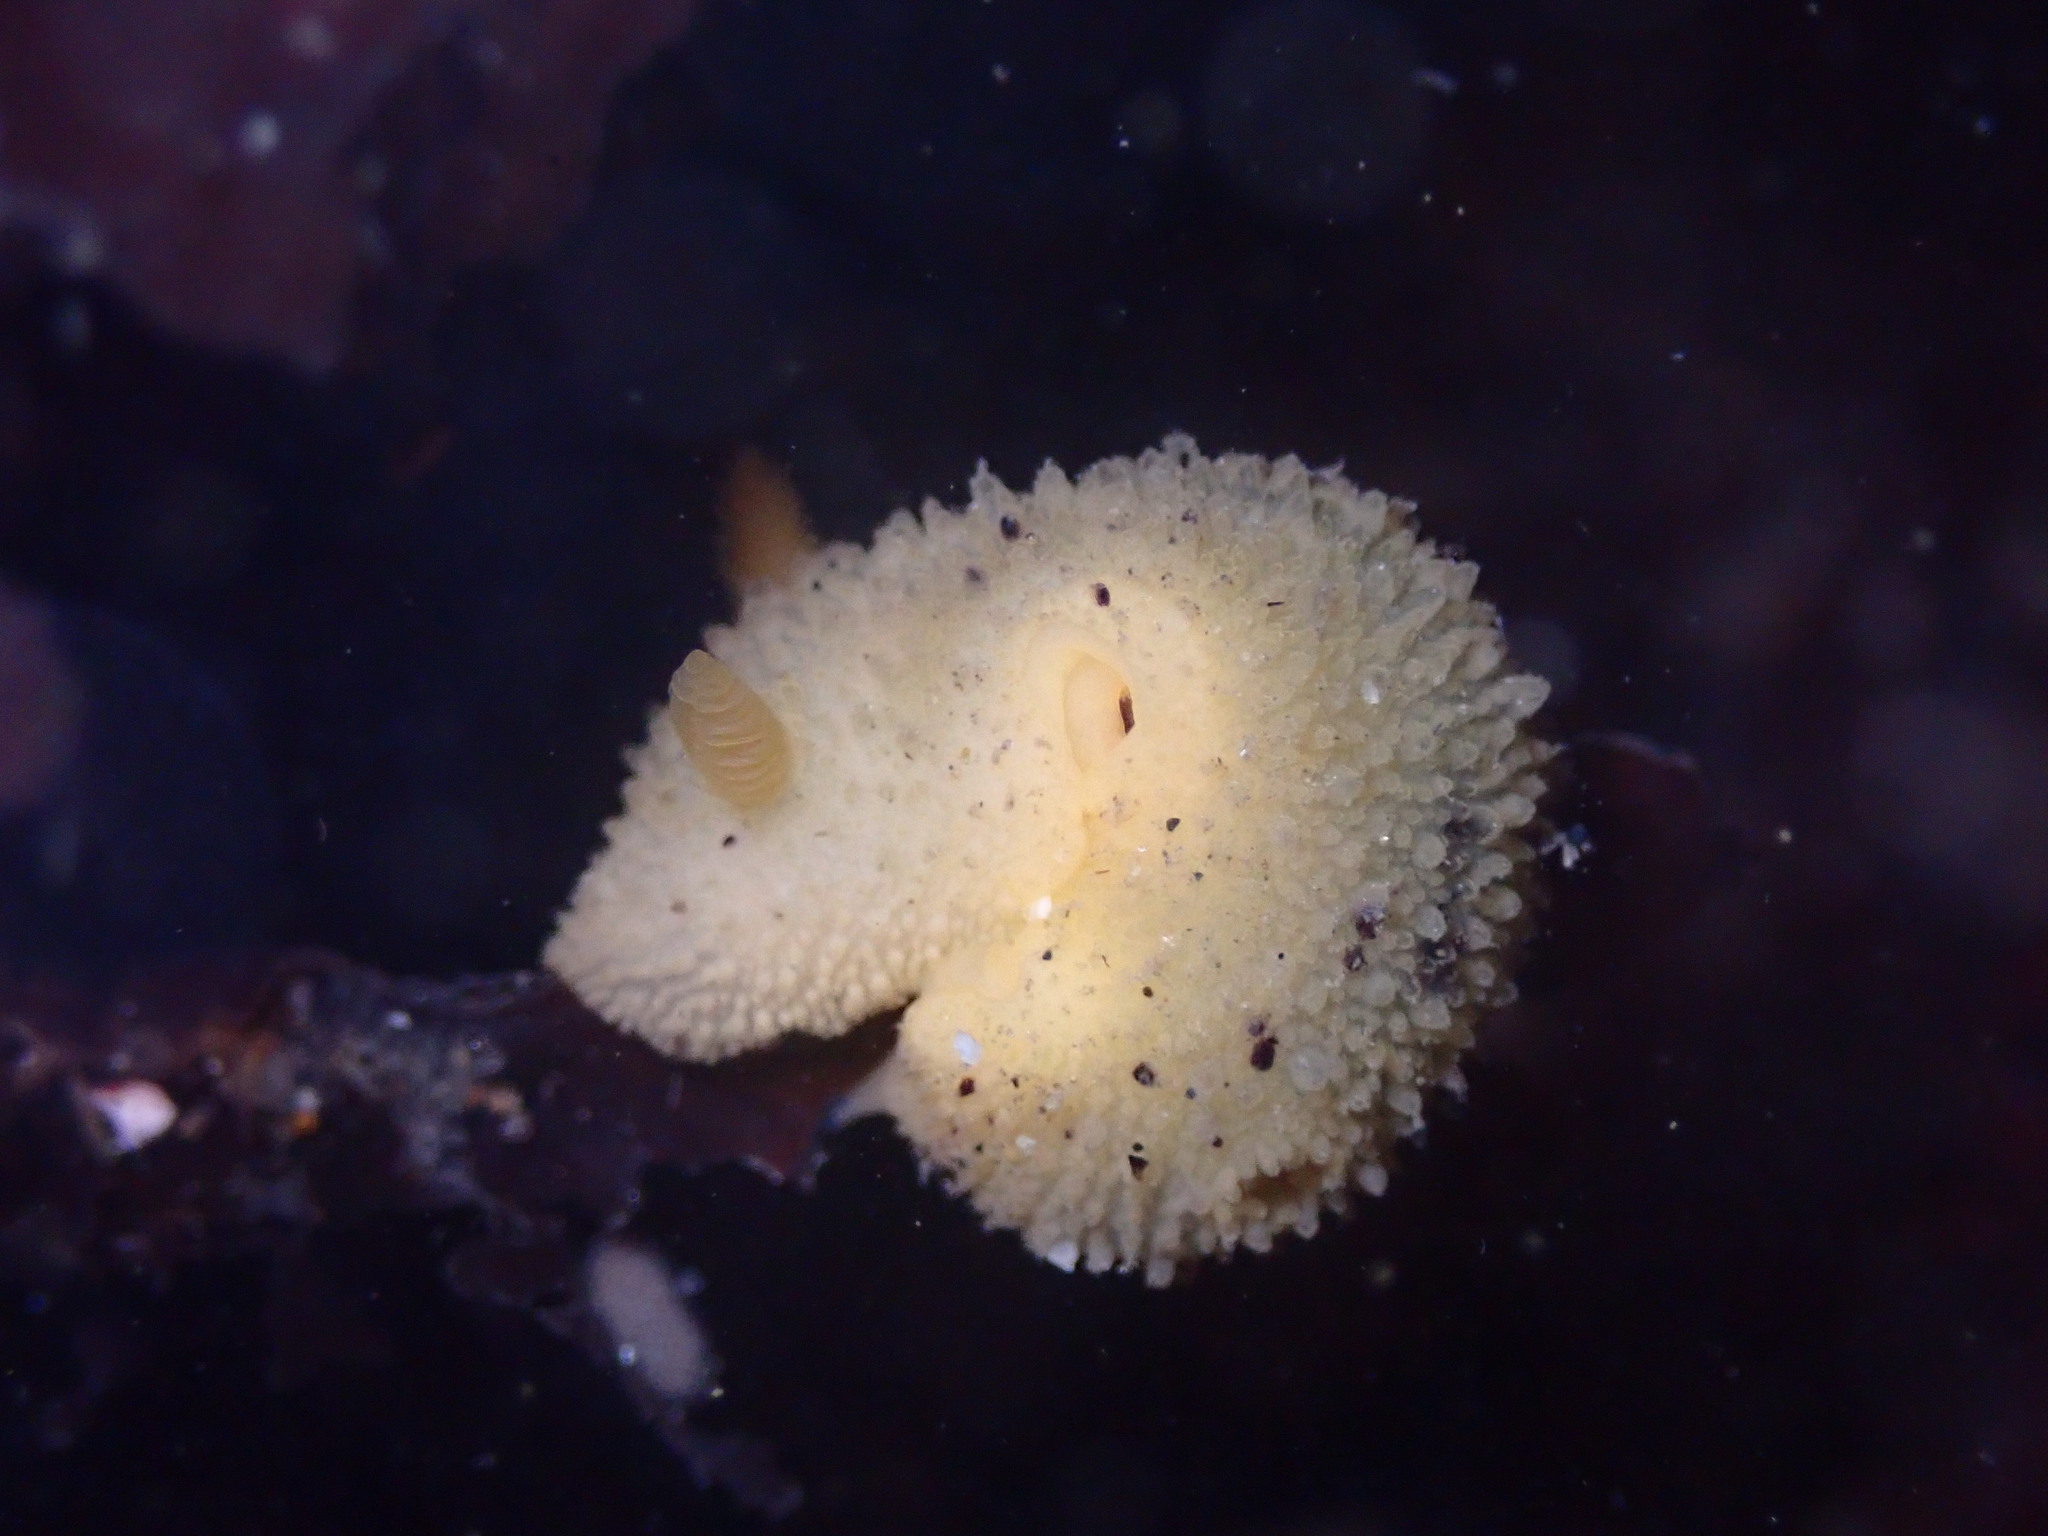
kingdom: Animalia
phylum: Mollusca
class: Gastropoda
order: Nudibranchia
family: Dorididae
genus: Doris
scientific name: Doris montereyensis
